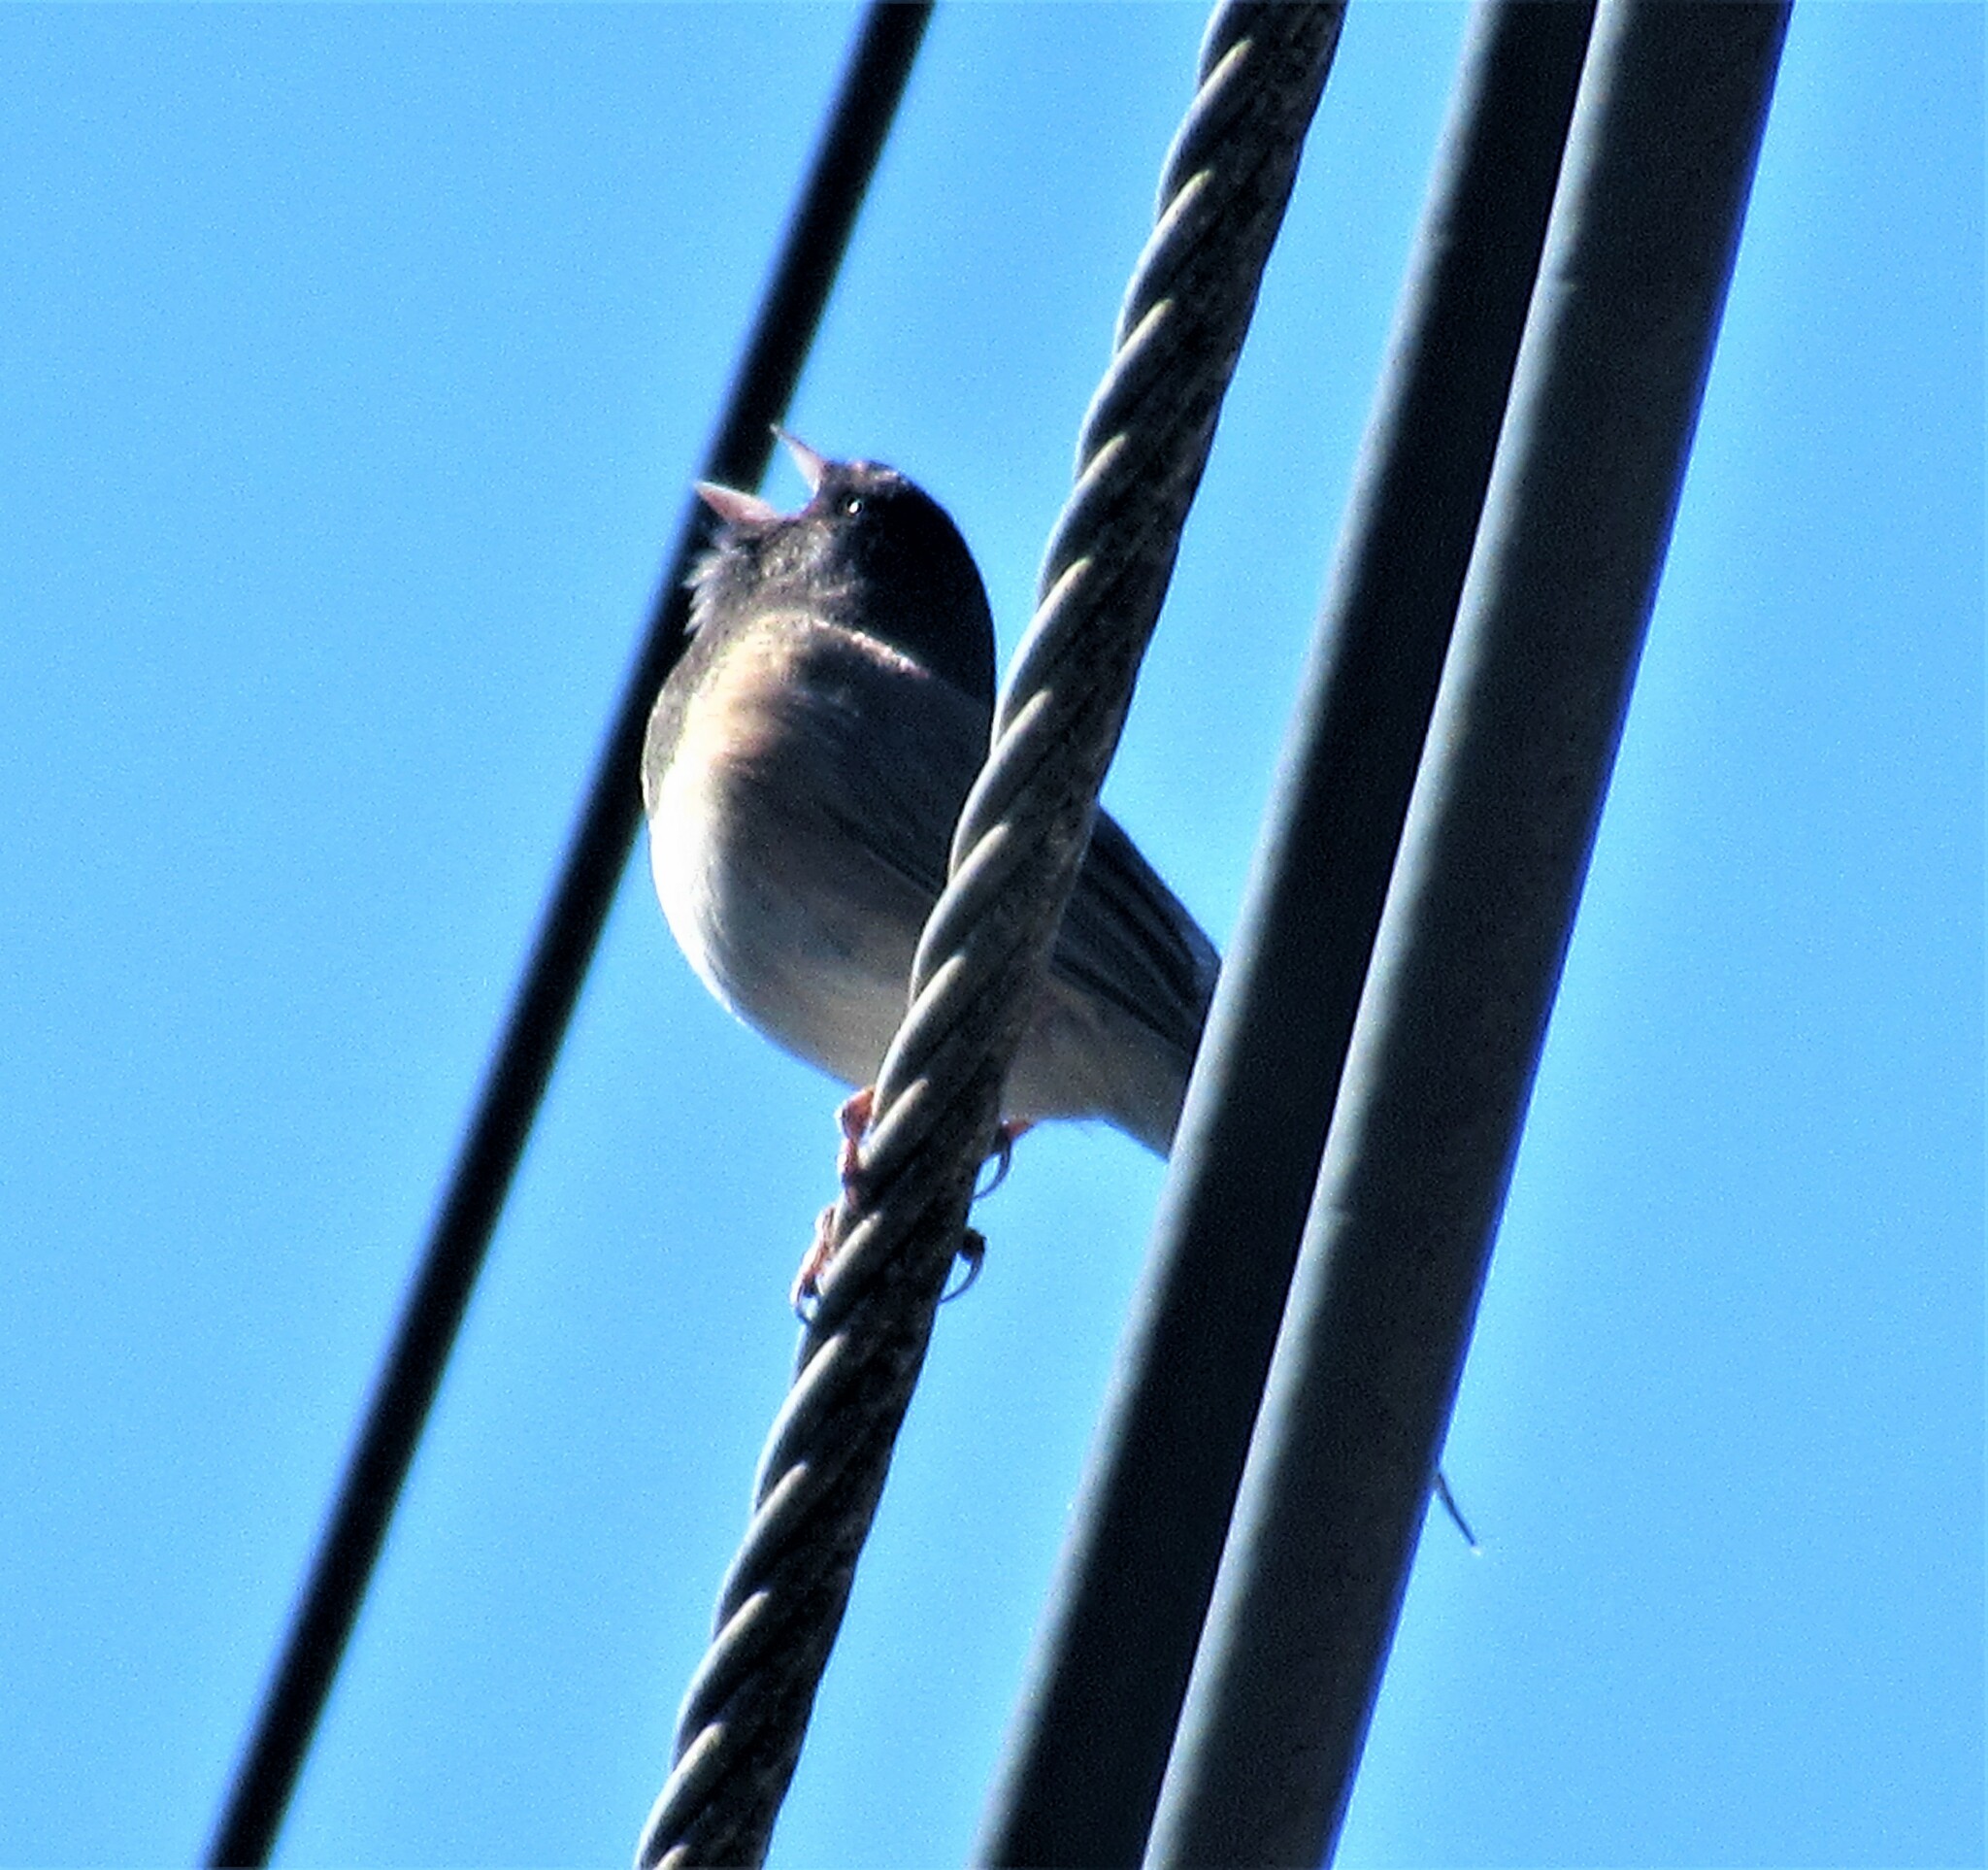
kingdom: Animalia
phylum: Chordata
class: Aves
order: Passeriformes
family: Passerellidae
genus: Junco
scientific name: Junco hyemalis
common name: Dark-eyed junco
